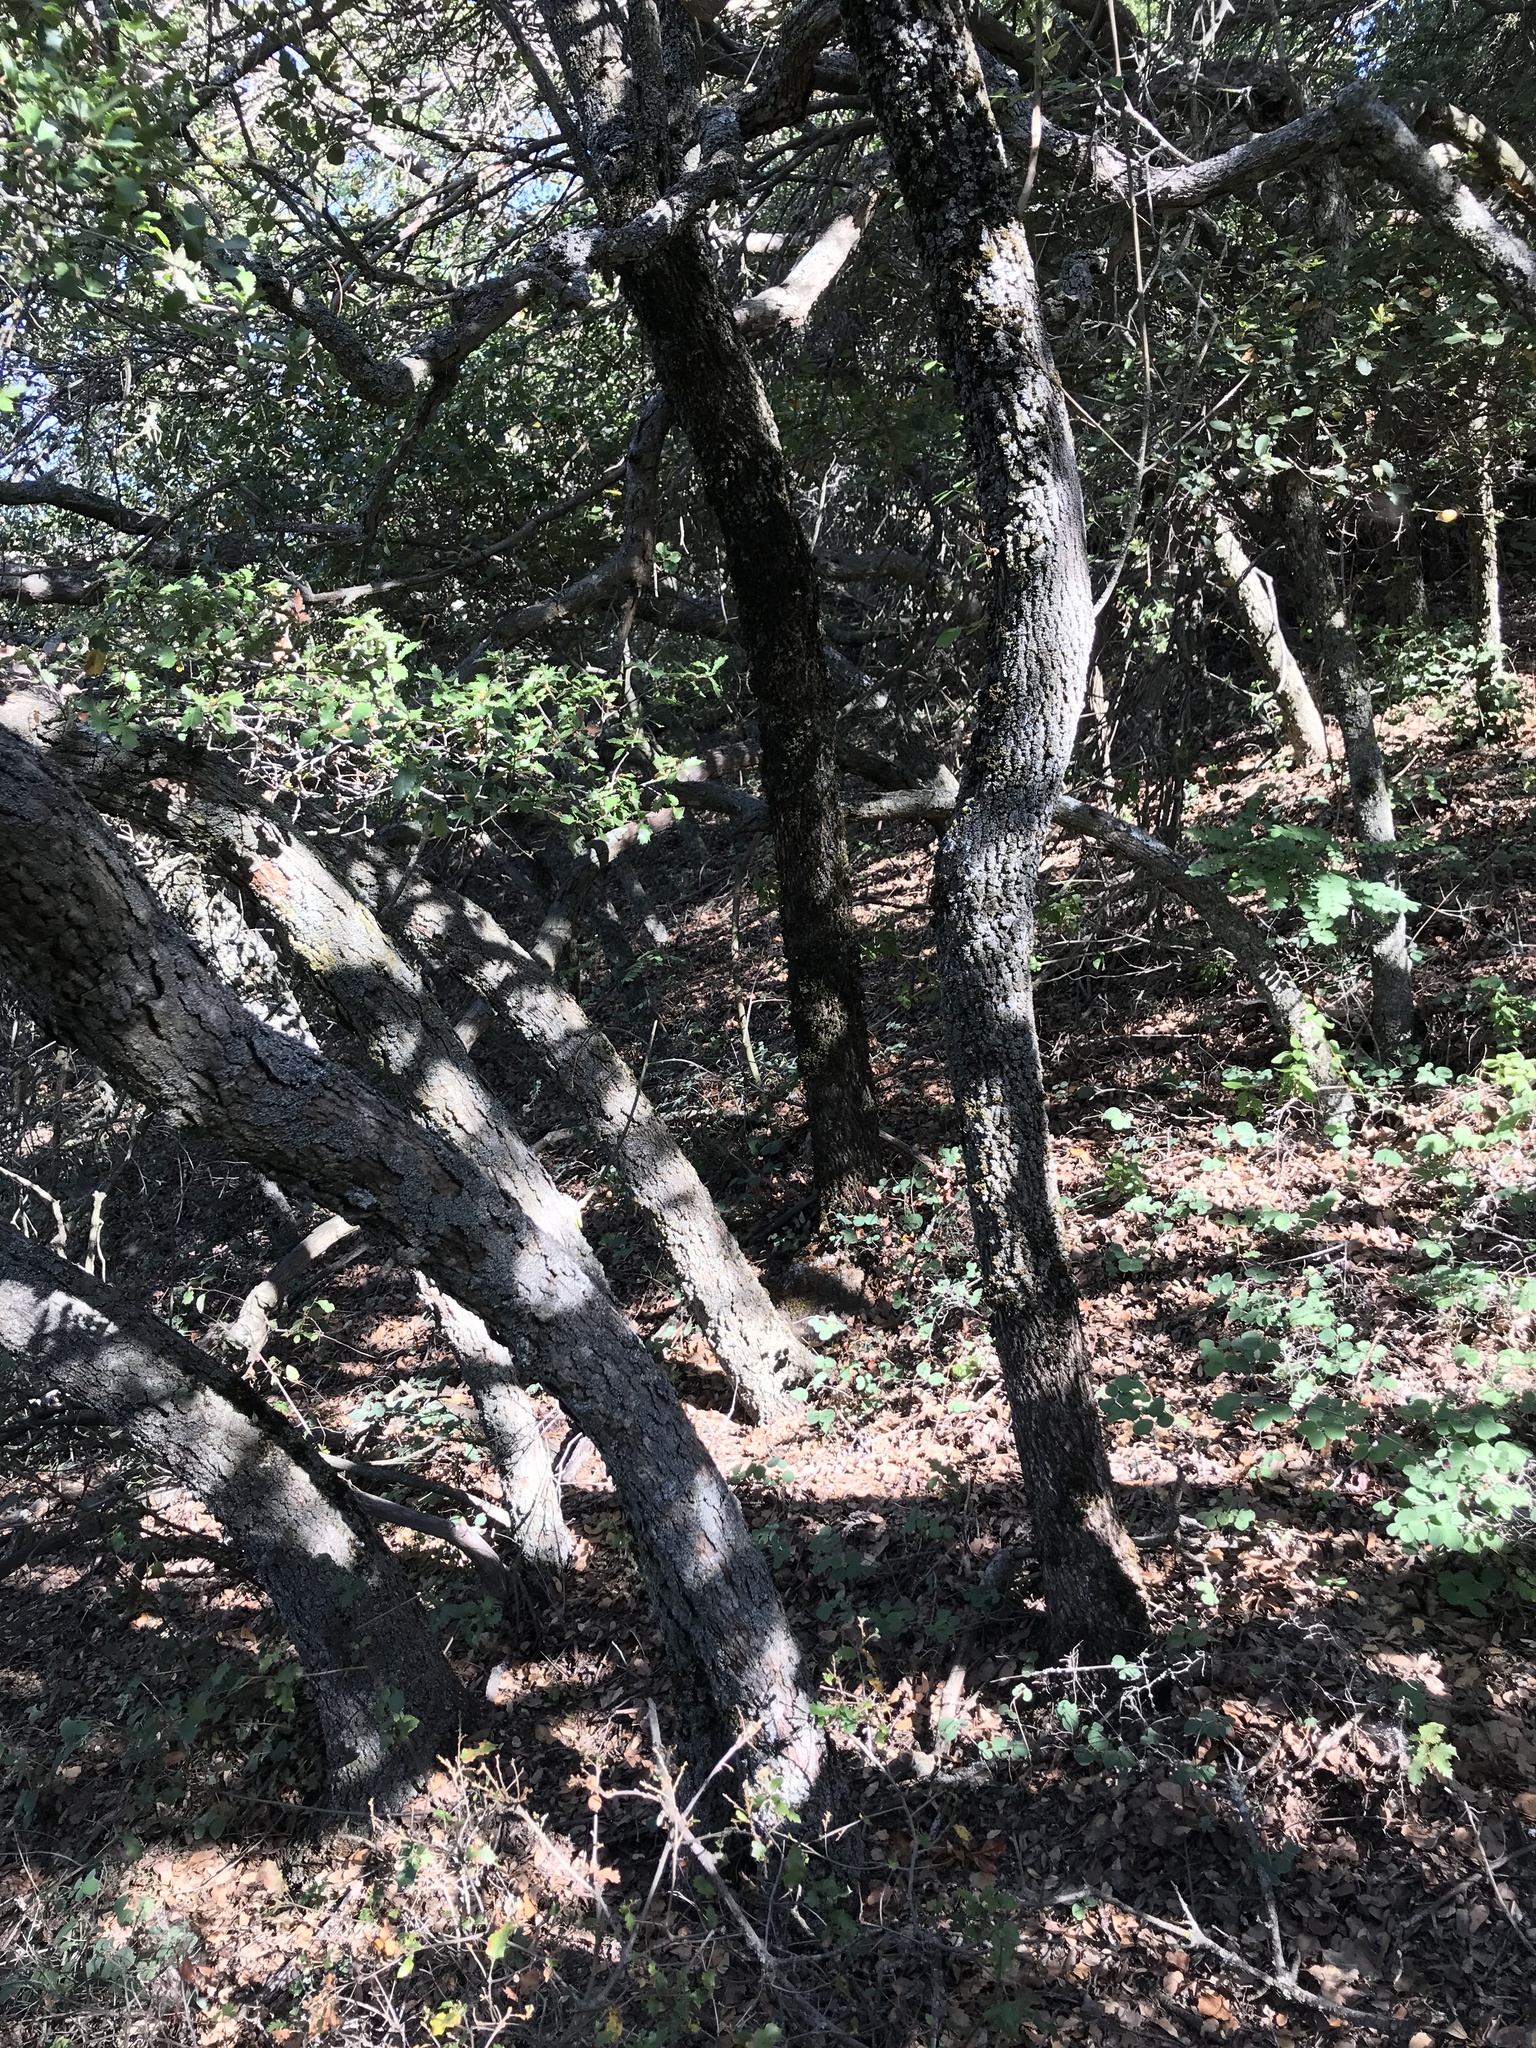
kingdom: Plantae
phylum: Tracheophyta
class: Magnoliopsida
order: Fagales
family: Fagaceae
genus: Quercus
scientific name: Quercus berberidifolia
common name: California scrub oak
